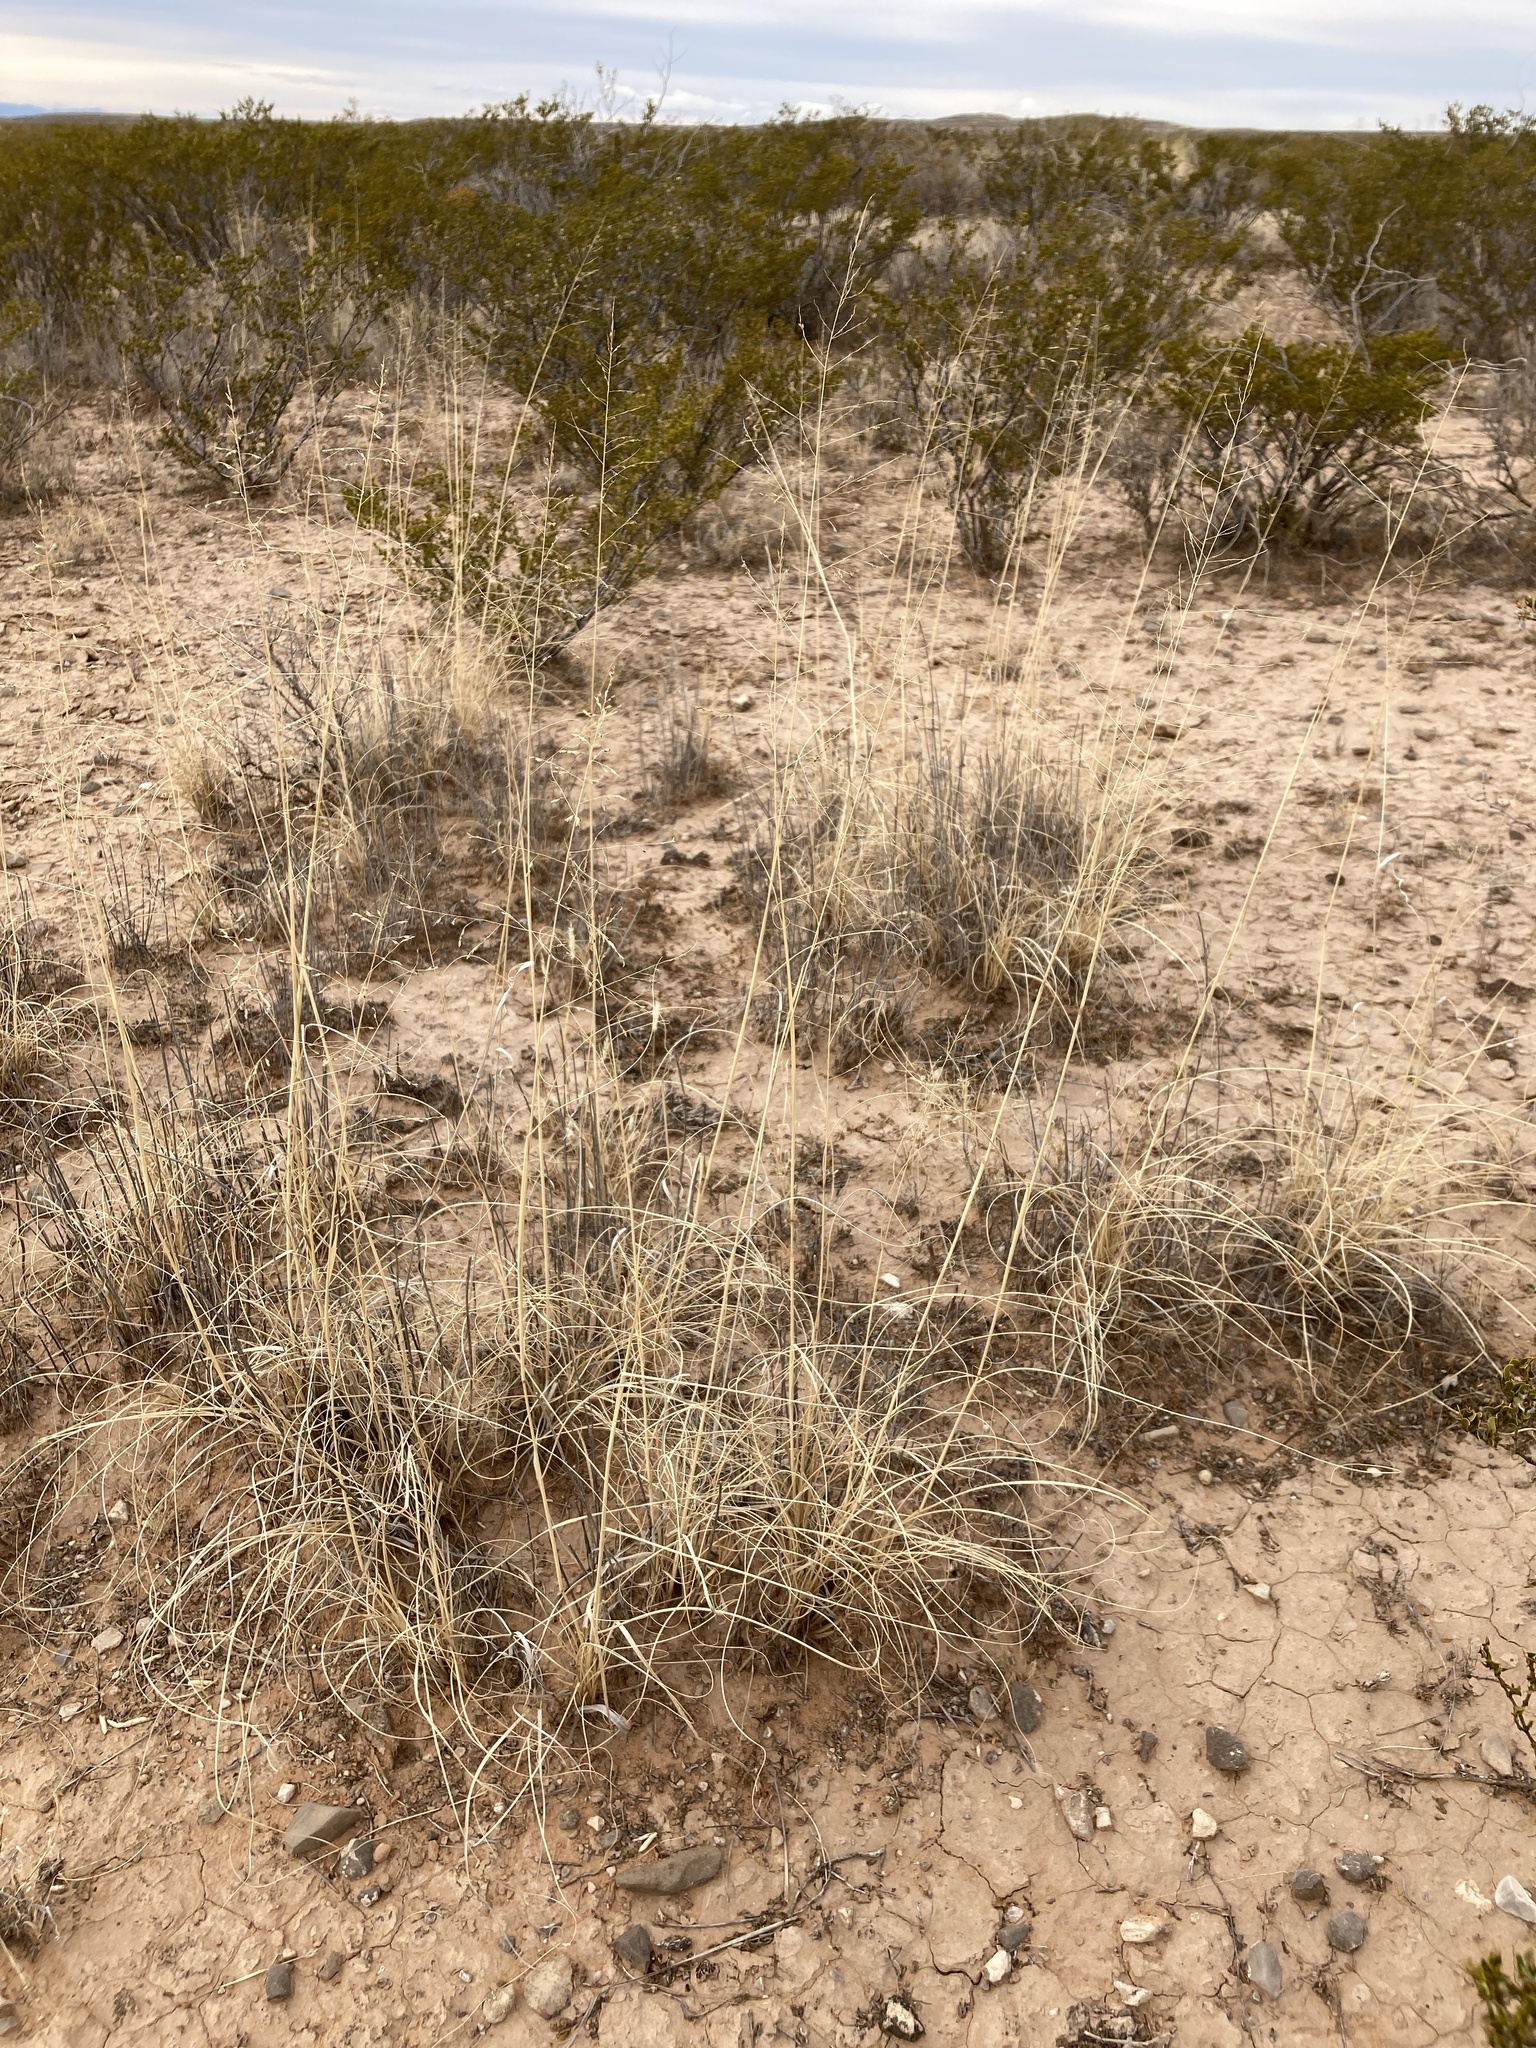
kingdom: Plantae
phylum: Tracheophyta
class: Liliopsida
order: Poales
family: Poaceae
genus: Sporobolus
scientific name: Sporobolus airoides
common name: Alkali sacaton
